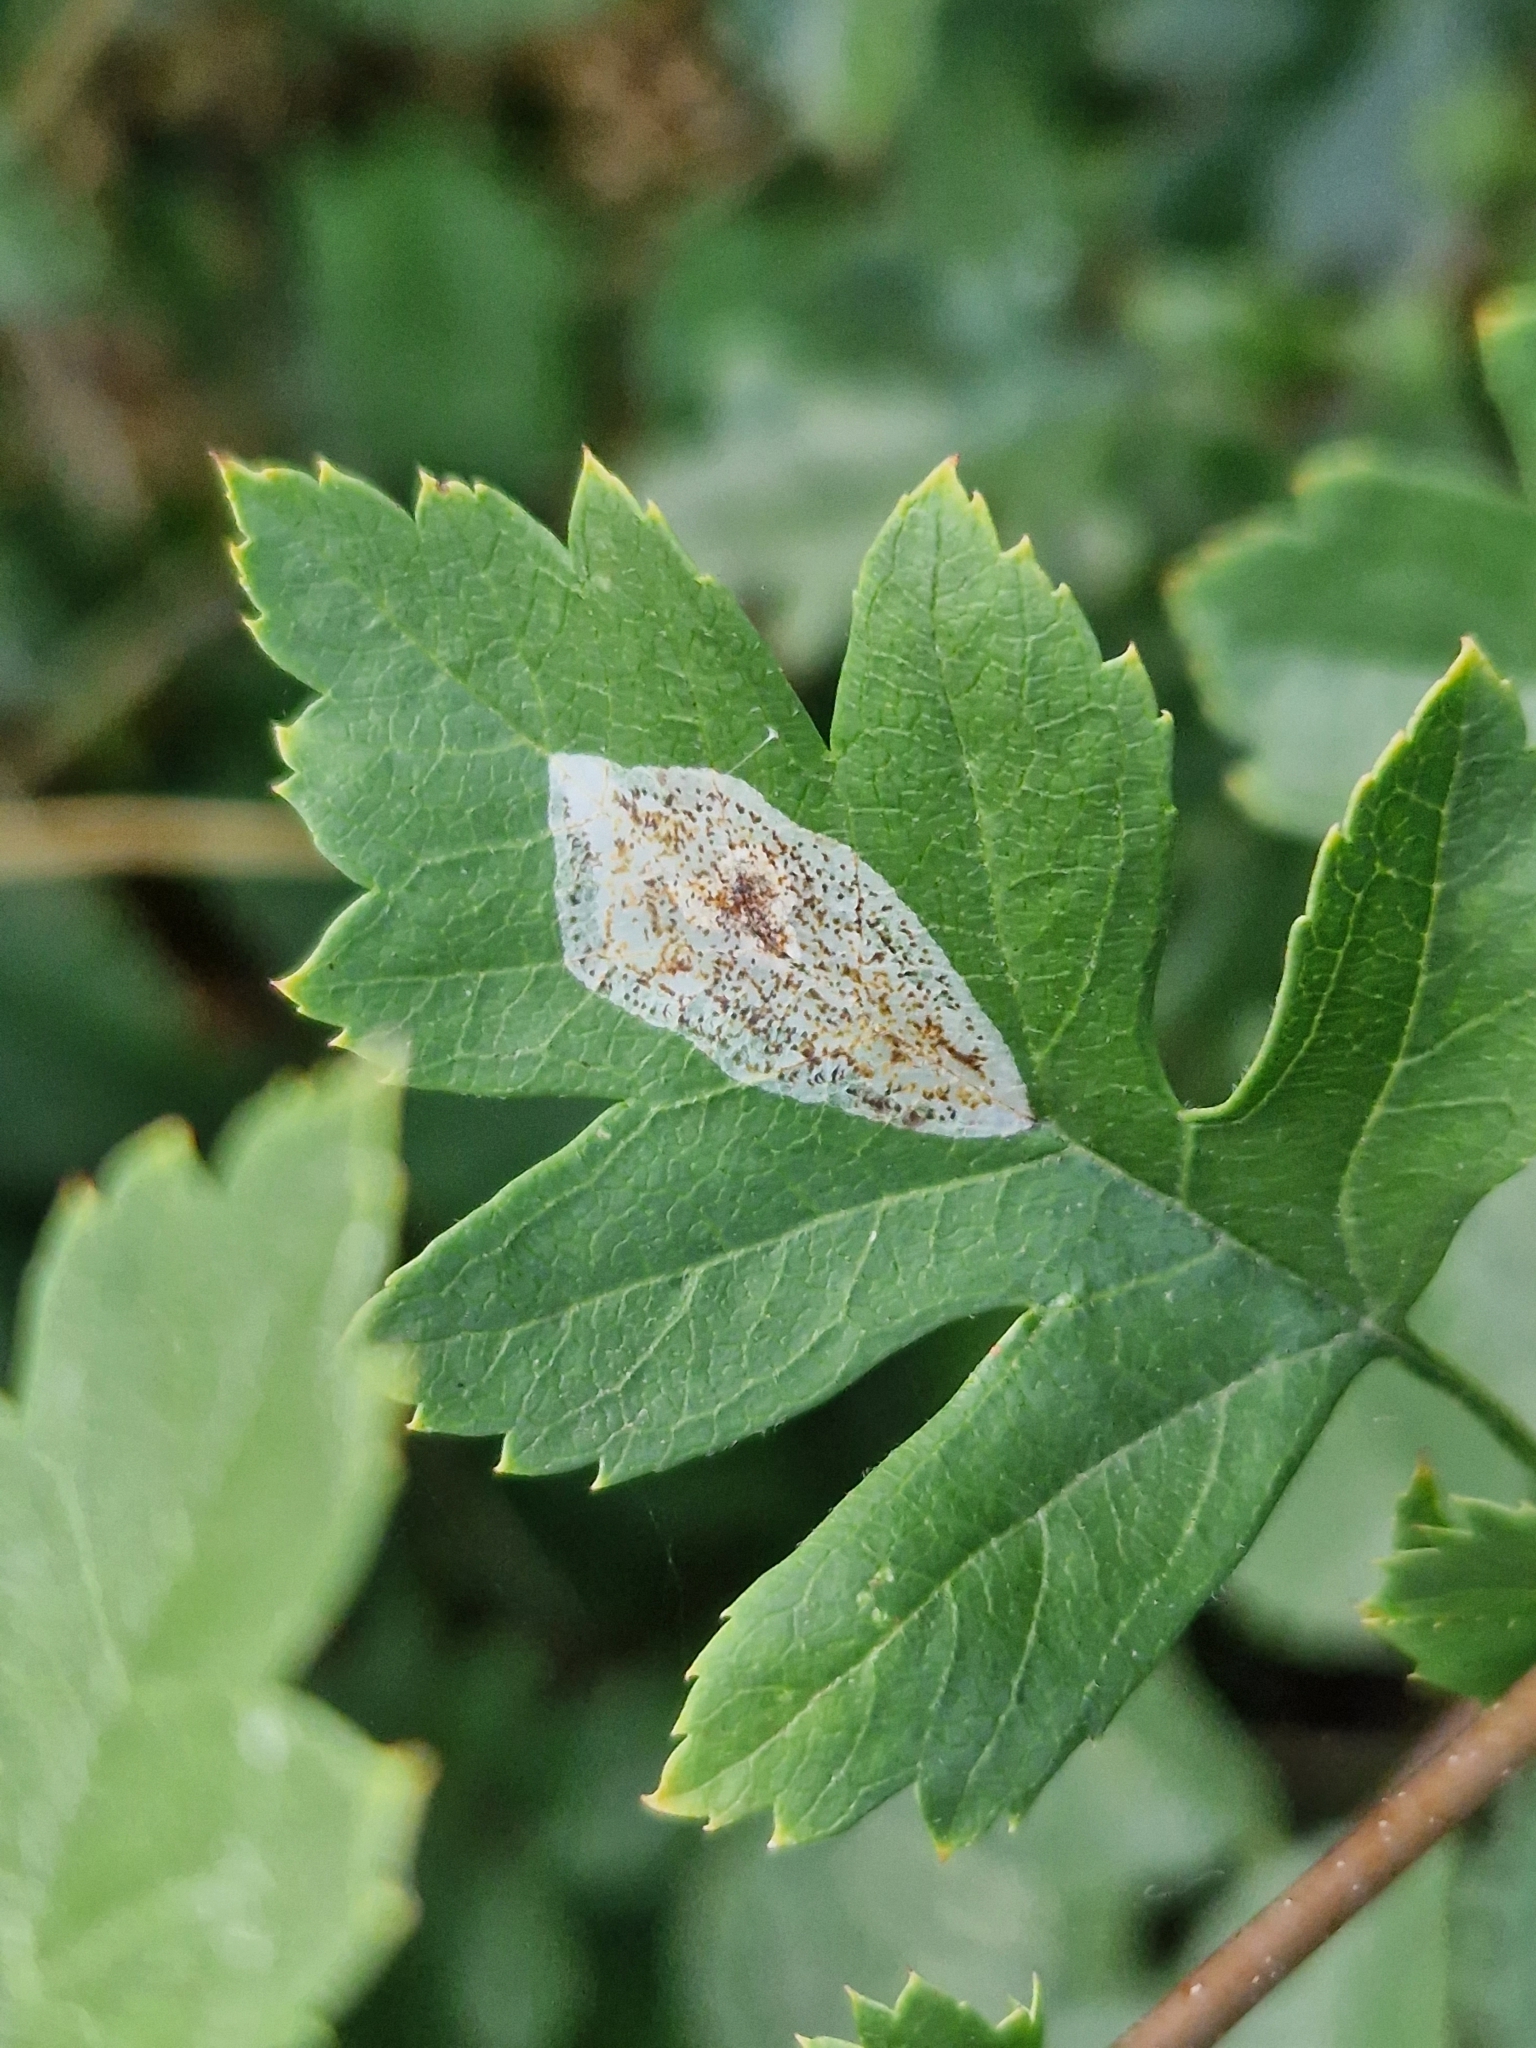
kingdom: Animalia
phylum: Arthropoda
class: Insecta
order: Lepidoptera
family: Gracillariidae
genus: Phyllonorycter
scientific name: Phyllonorycter corylifoliella
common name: Hawthorn midget
